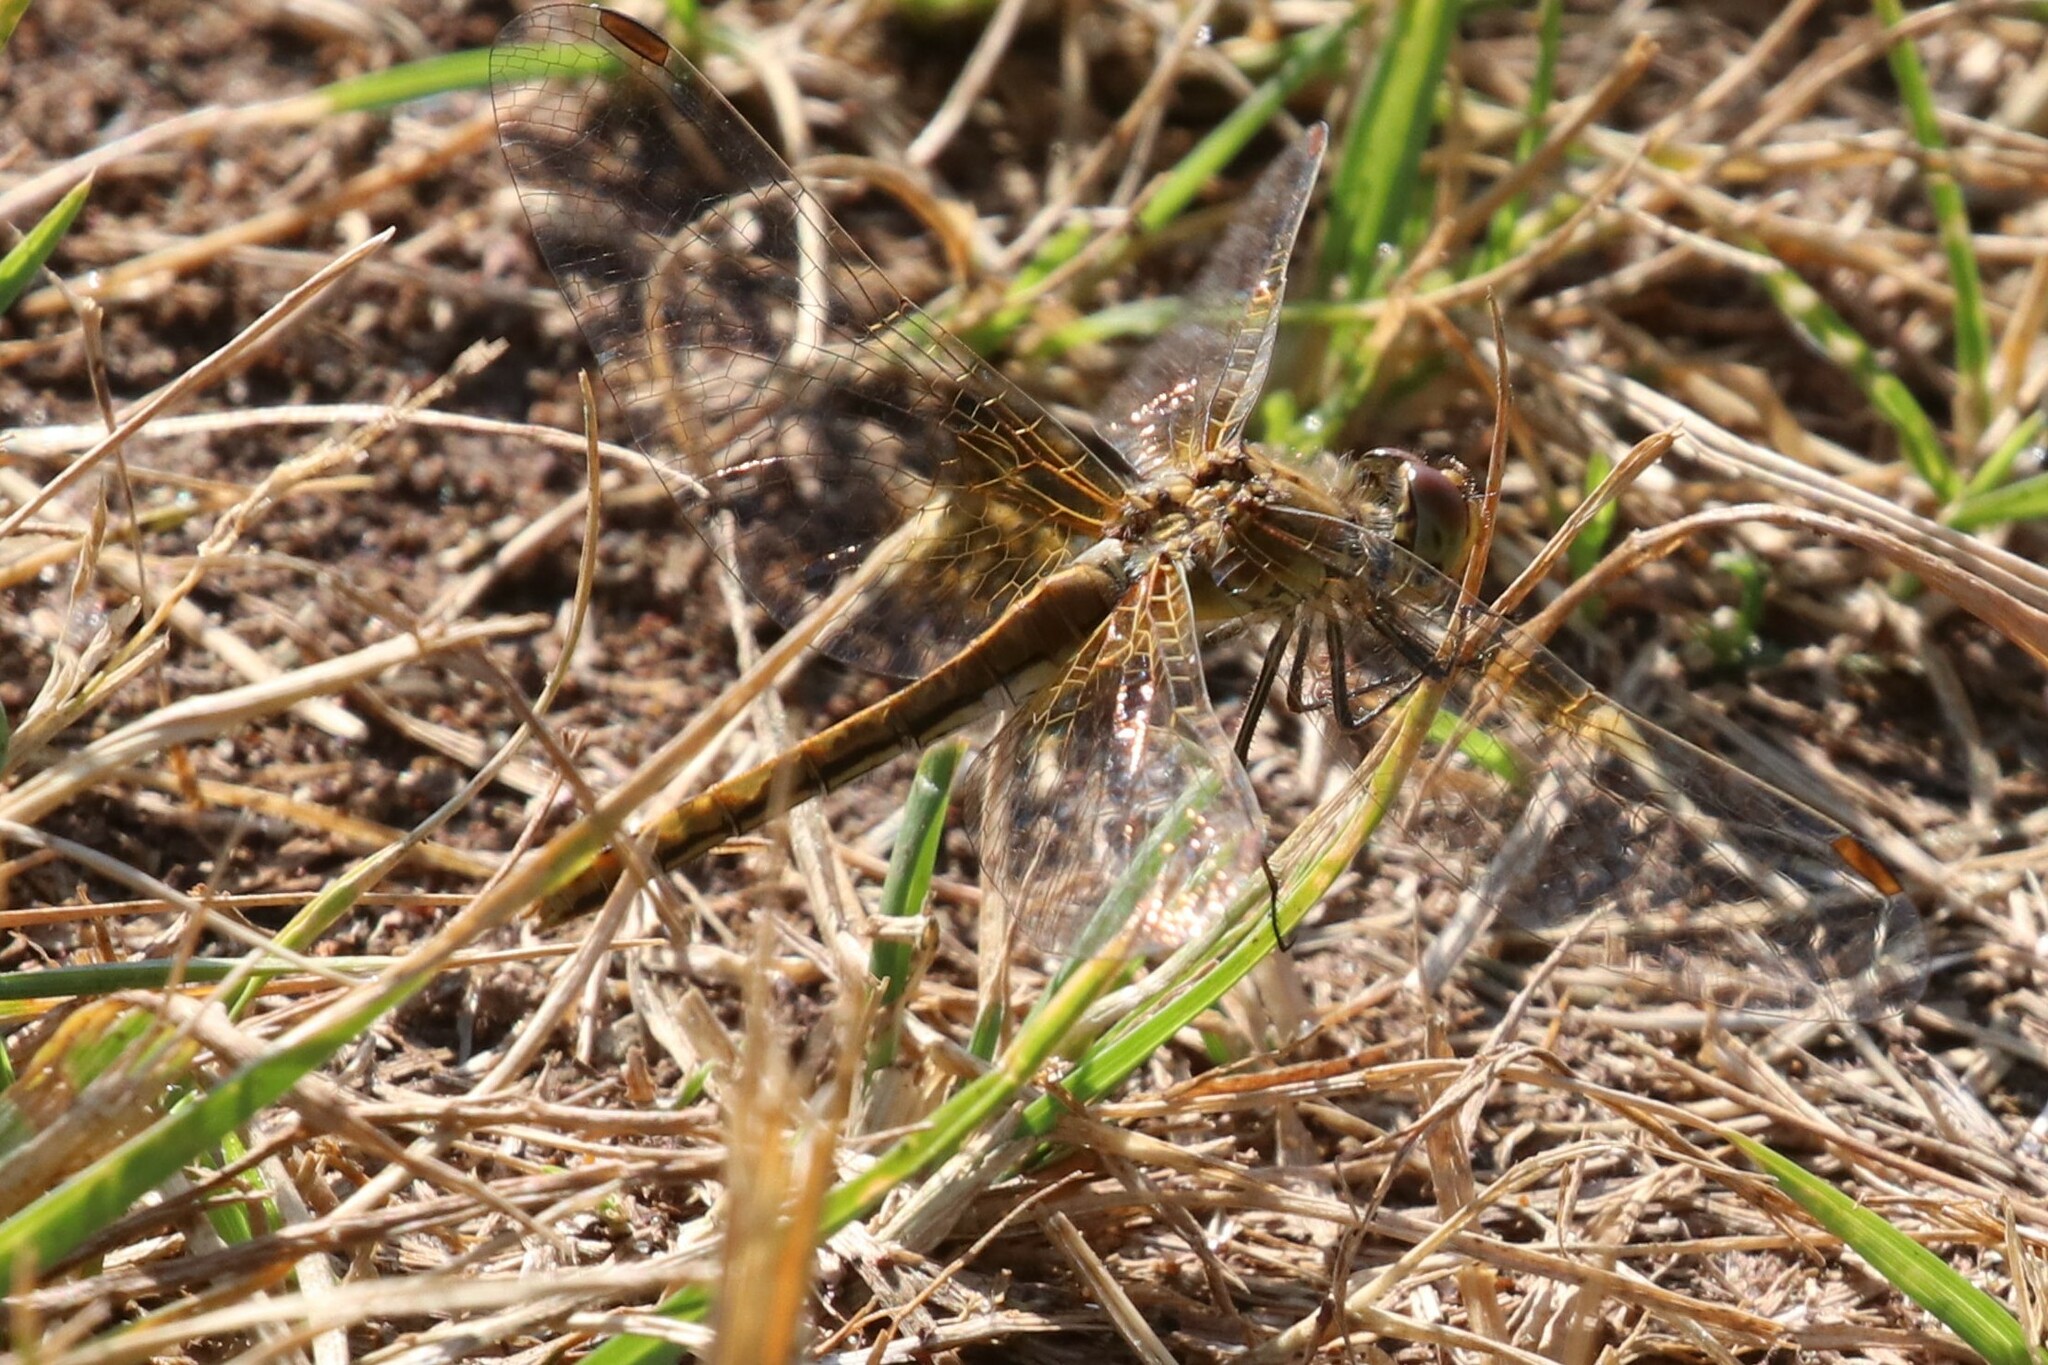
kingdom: Animalia
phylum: Arthropoda
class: Insecta
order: Odonata
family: Libellulidae
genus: Sympetrum
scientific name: Sympetrum flaveolum
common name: Yellow-winged darter
